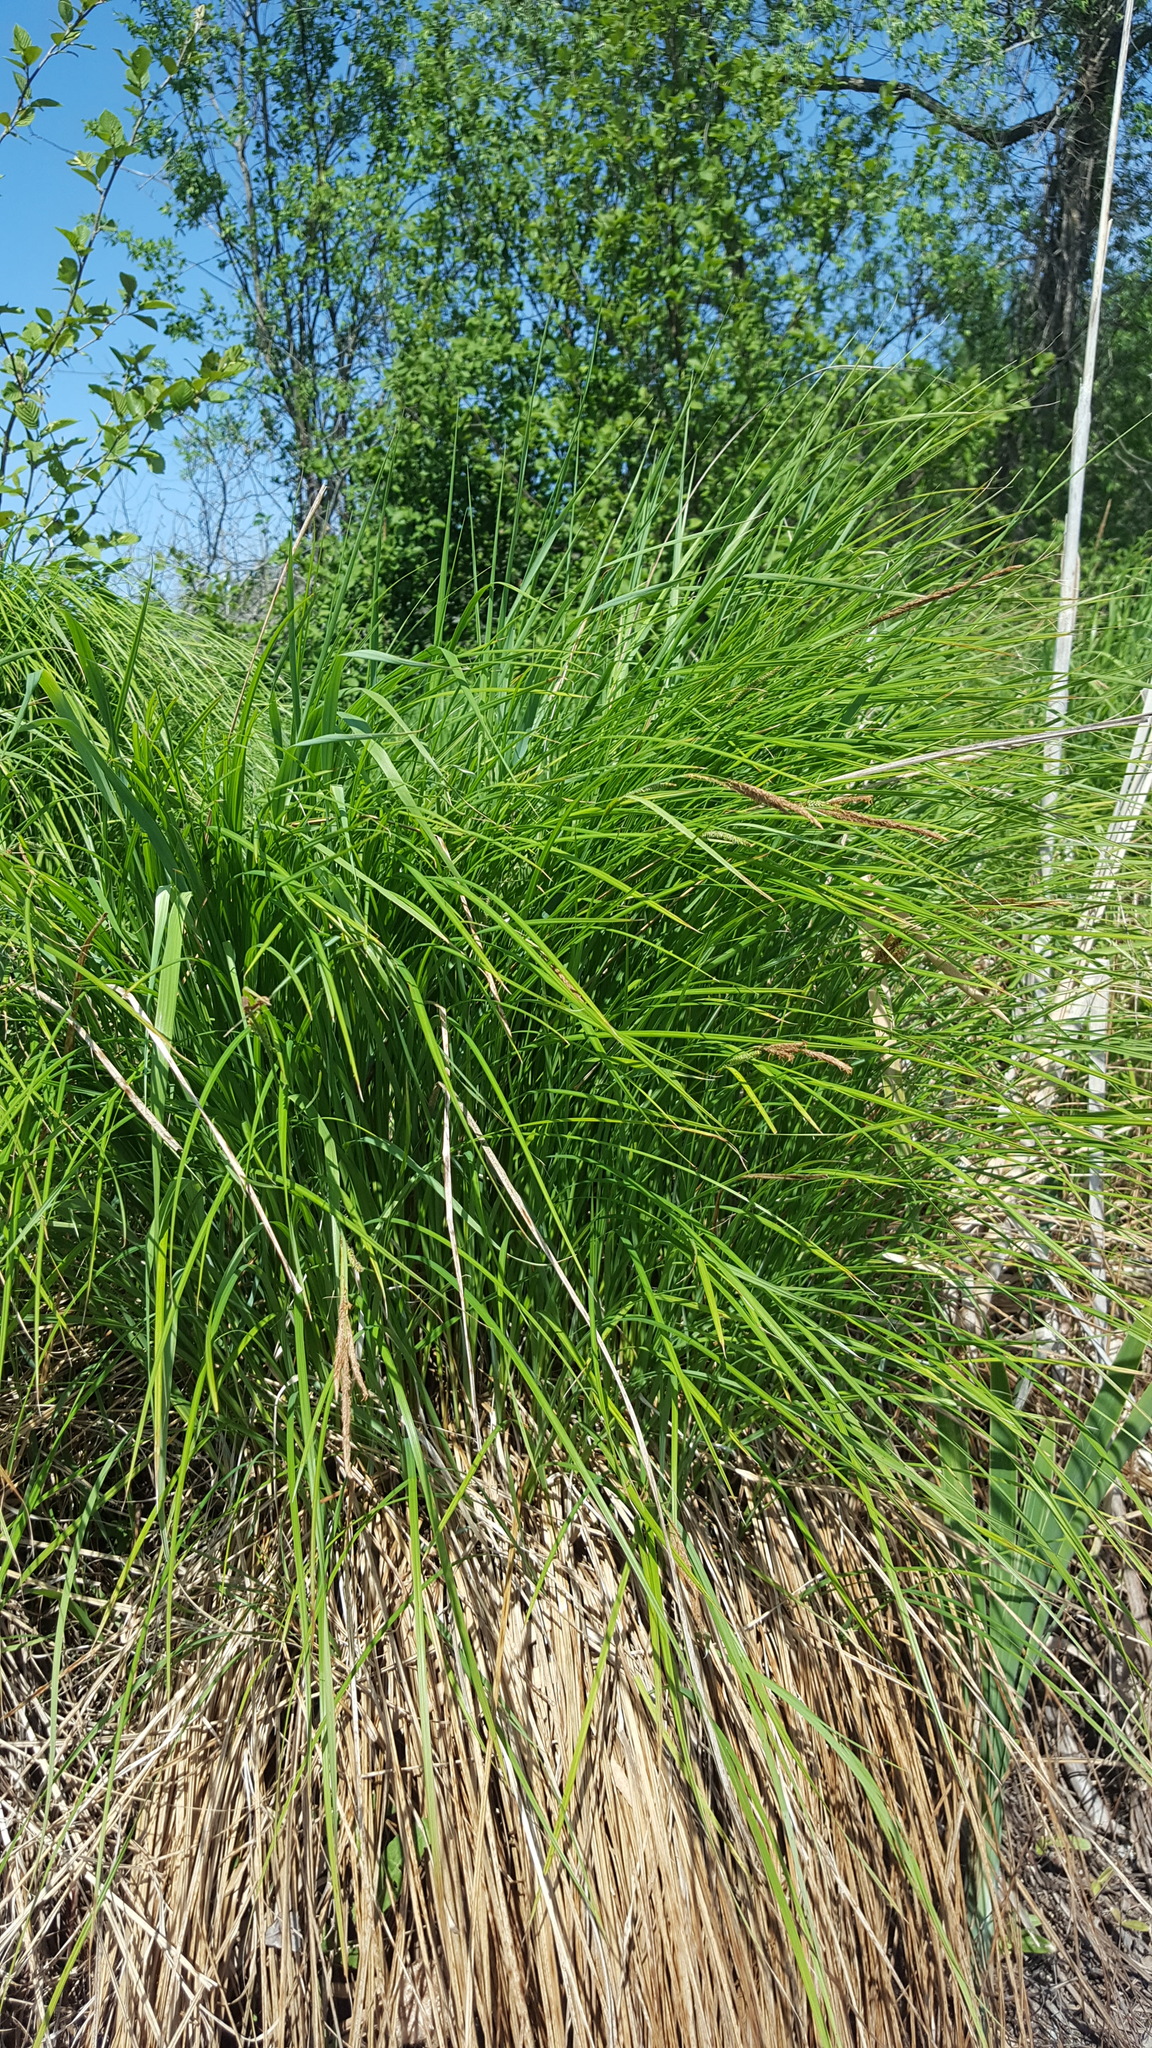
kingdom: Plantae
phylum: Tracheophyta
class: Liliopsida
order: Poales
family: Cyperaceae
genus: Carex
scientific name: Carex stricta
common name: Hummock sedge
